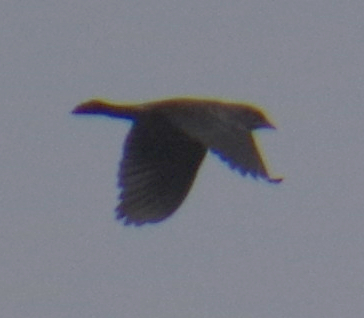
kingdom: Animalia
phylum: Chordata
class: Aves
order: Passeriformes
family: Icteridae
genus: Agelaius
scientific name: Agelaius phoeniceus
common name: Red-winged blackbird
